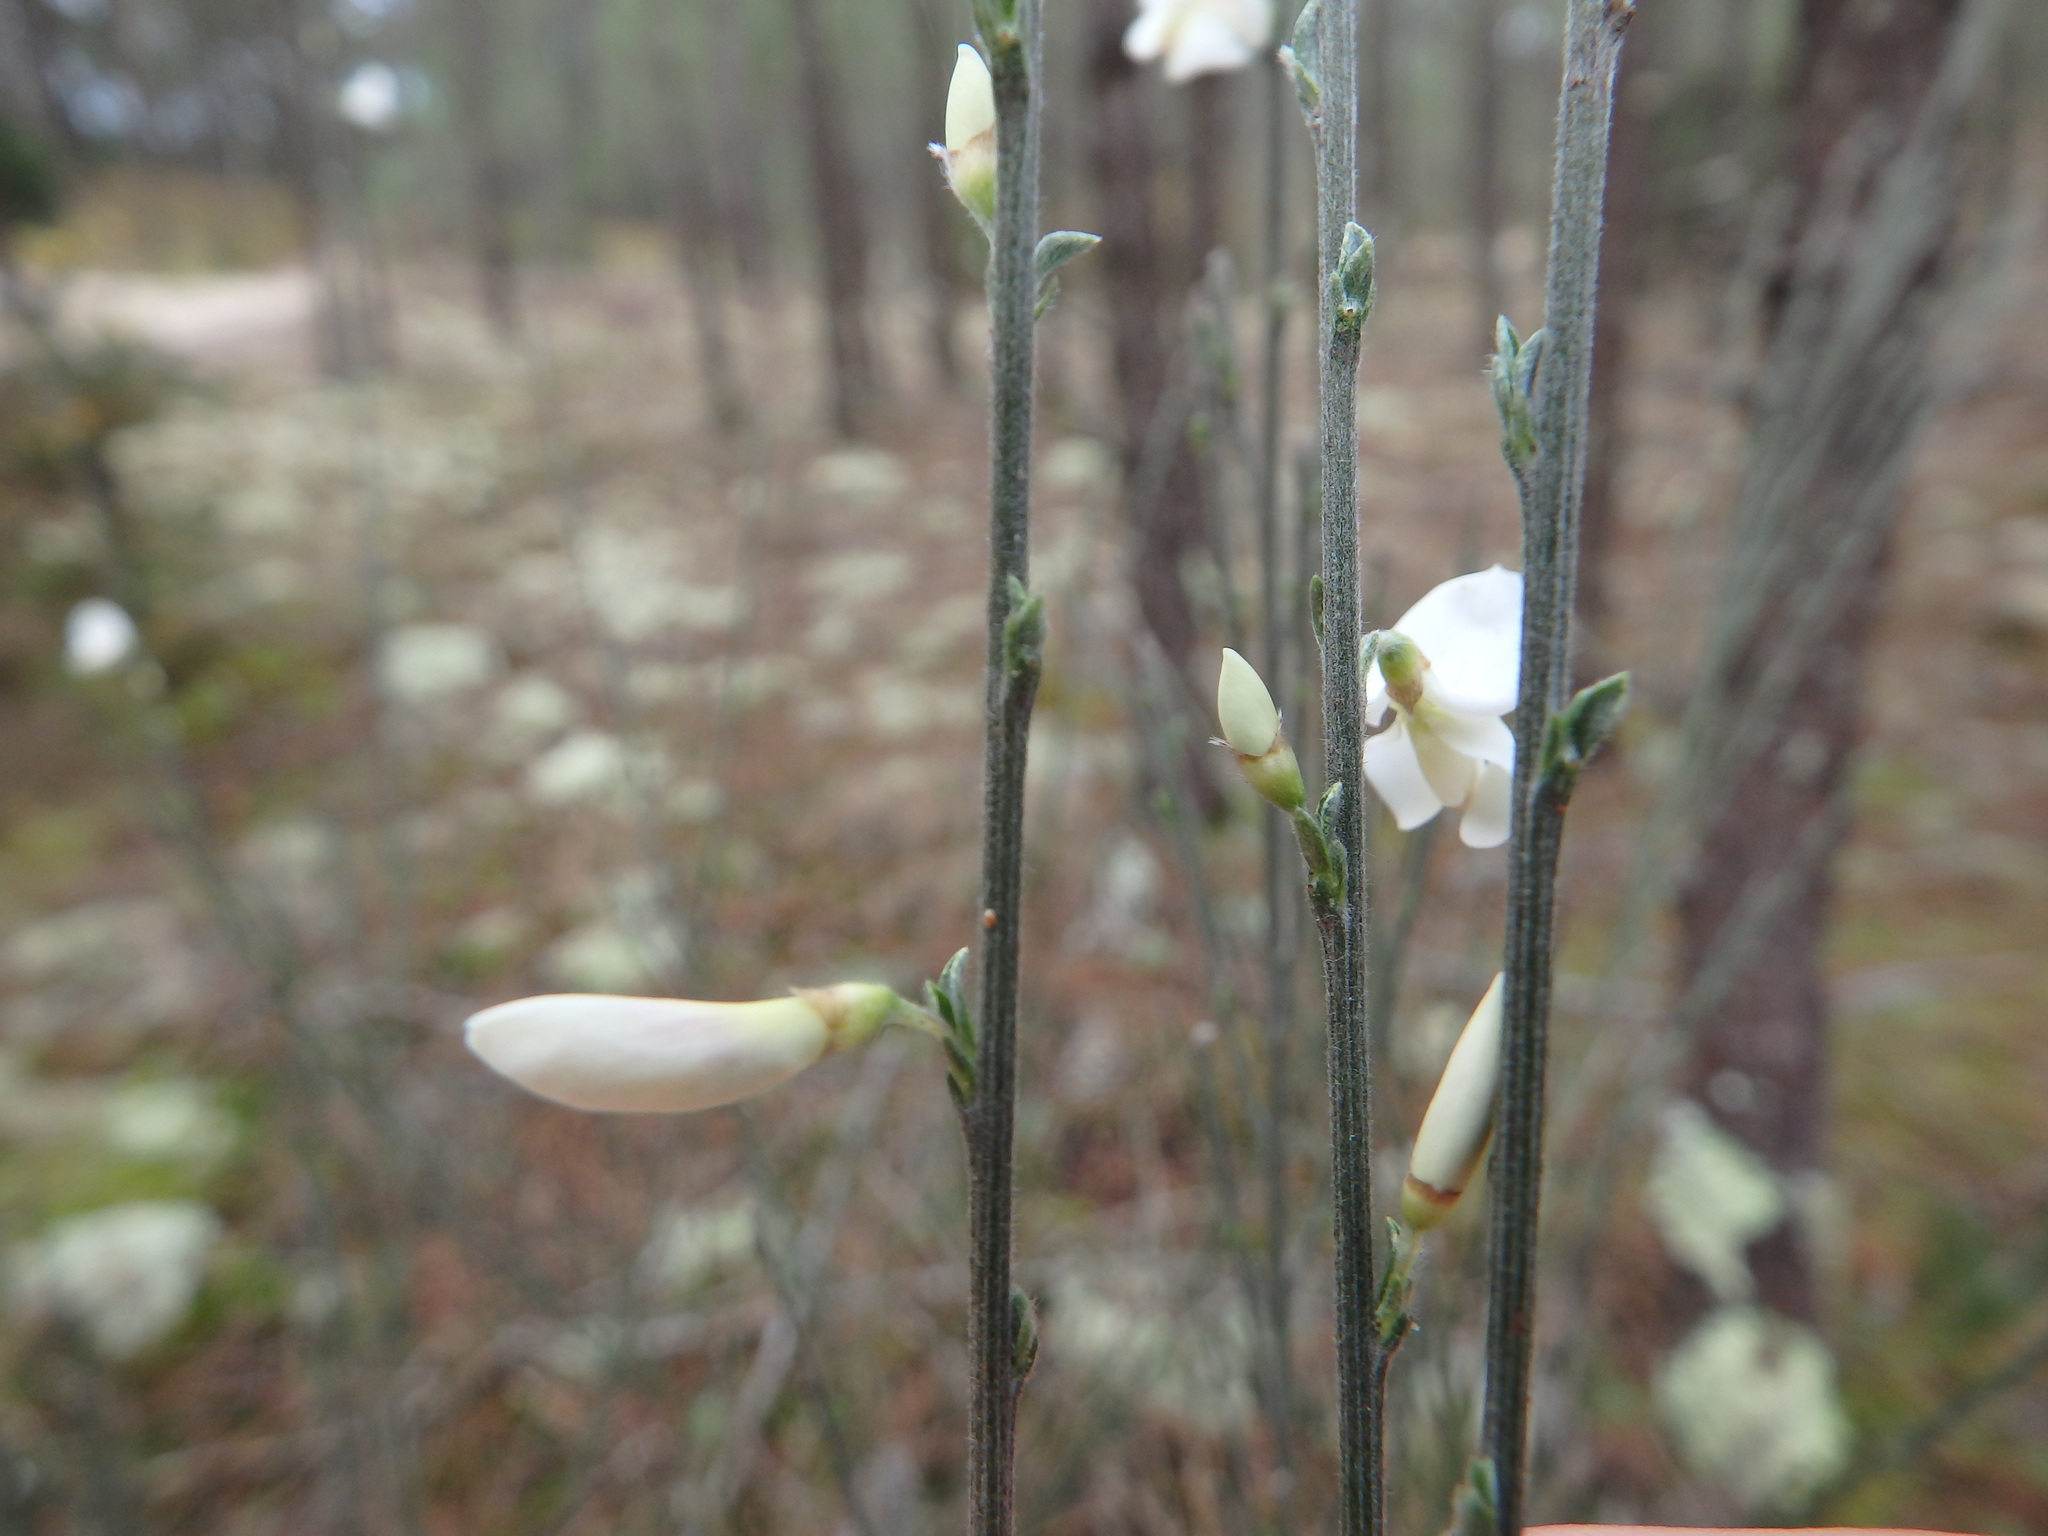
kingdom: Plantae
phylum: Tracheophyta
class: Magnoliopsida
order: Fabales
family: Fabaceae
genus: Cytisus
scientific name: Cytisus multiflorus
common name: White broom
